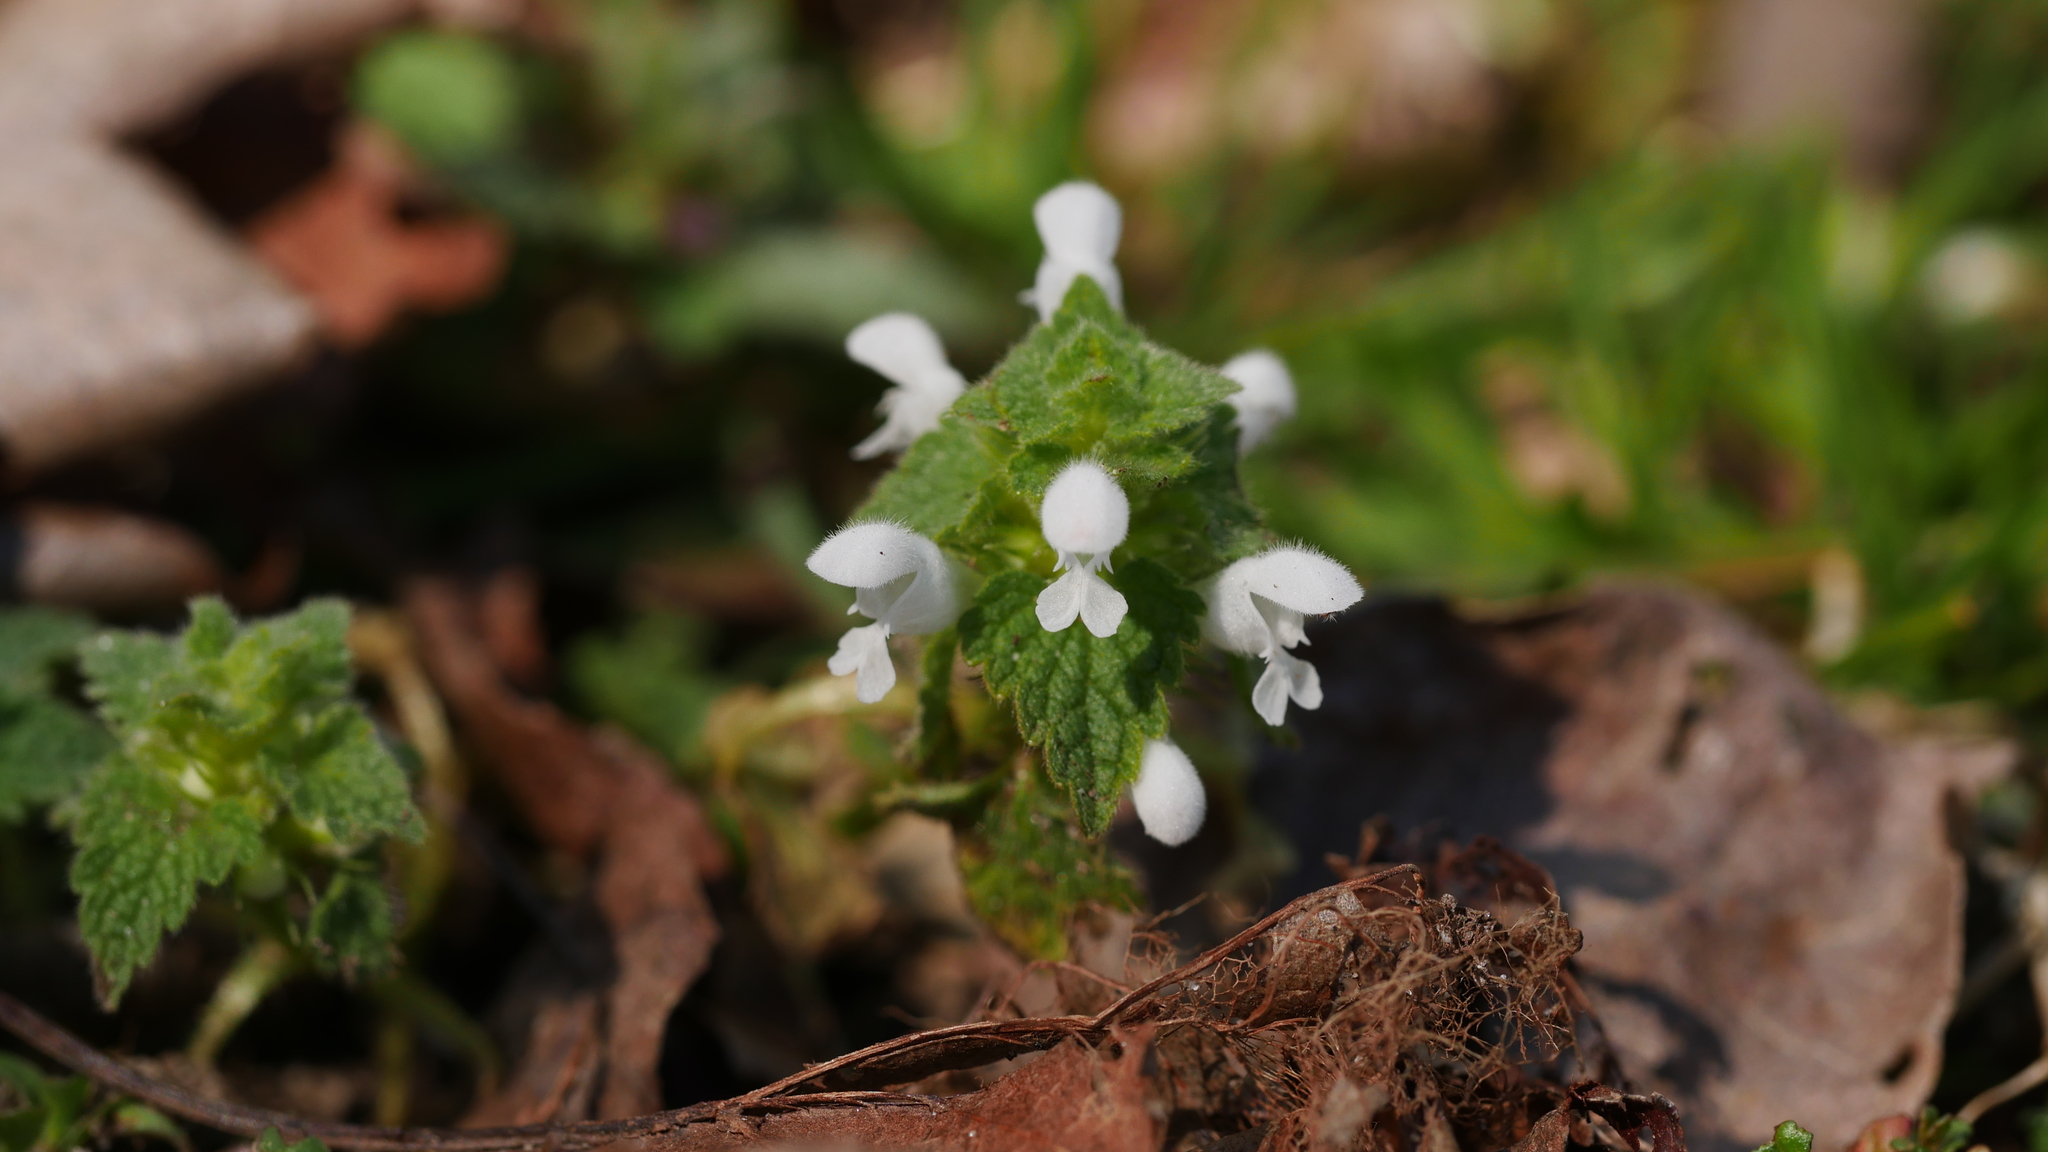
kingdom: Plantae
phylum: Tracheophyta
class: Magnoliopsida
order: Lamiales
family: Lamiaceae
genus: Lamium
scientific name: Lamium purpureum
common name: Red dead-nettle
